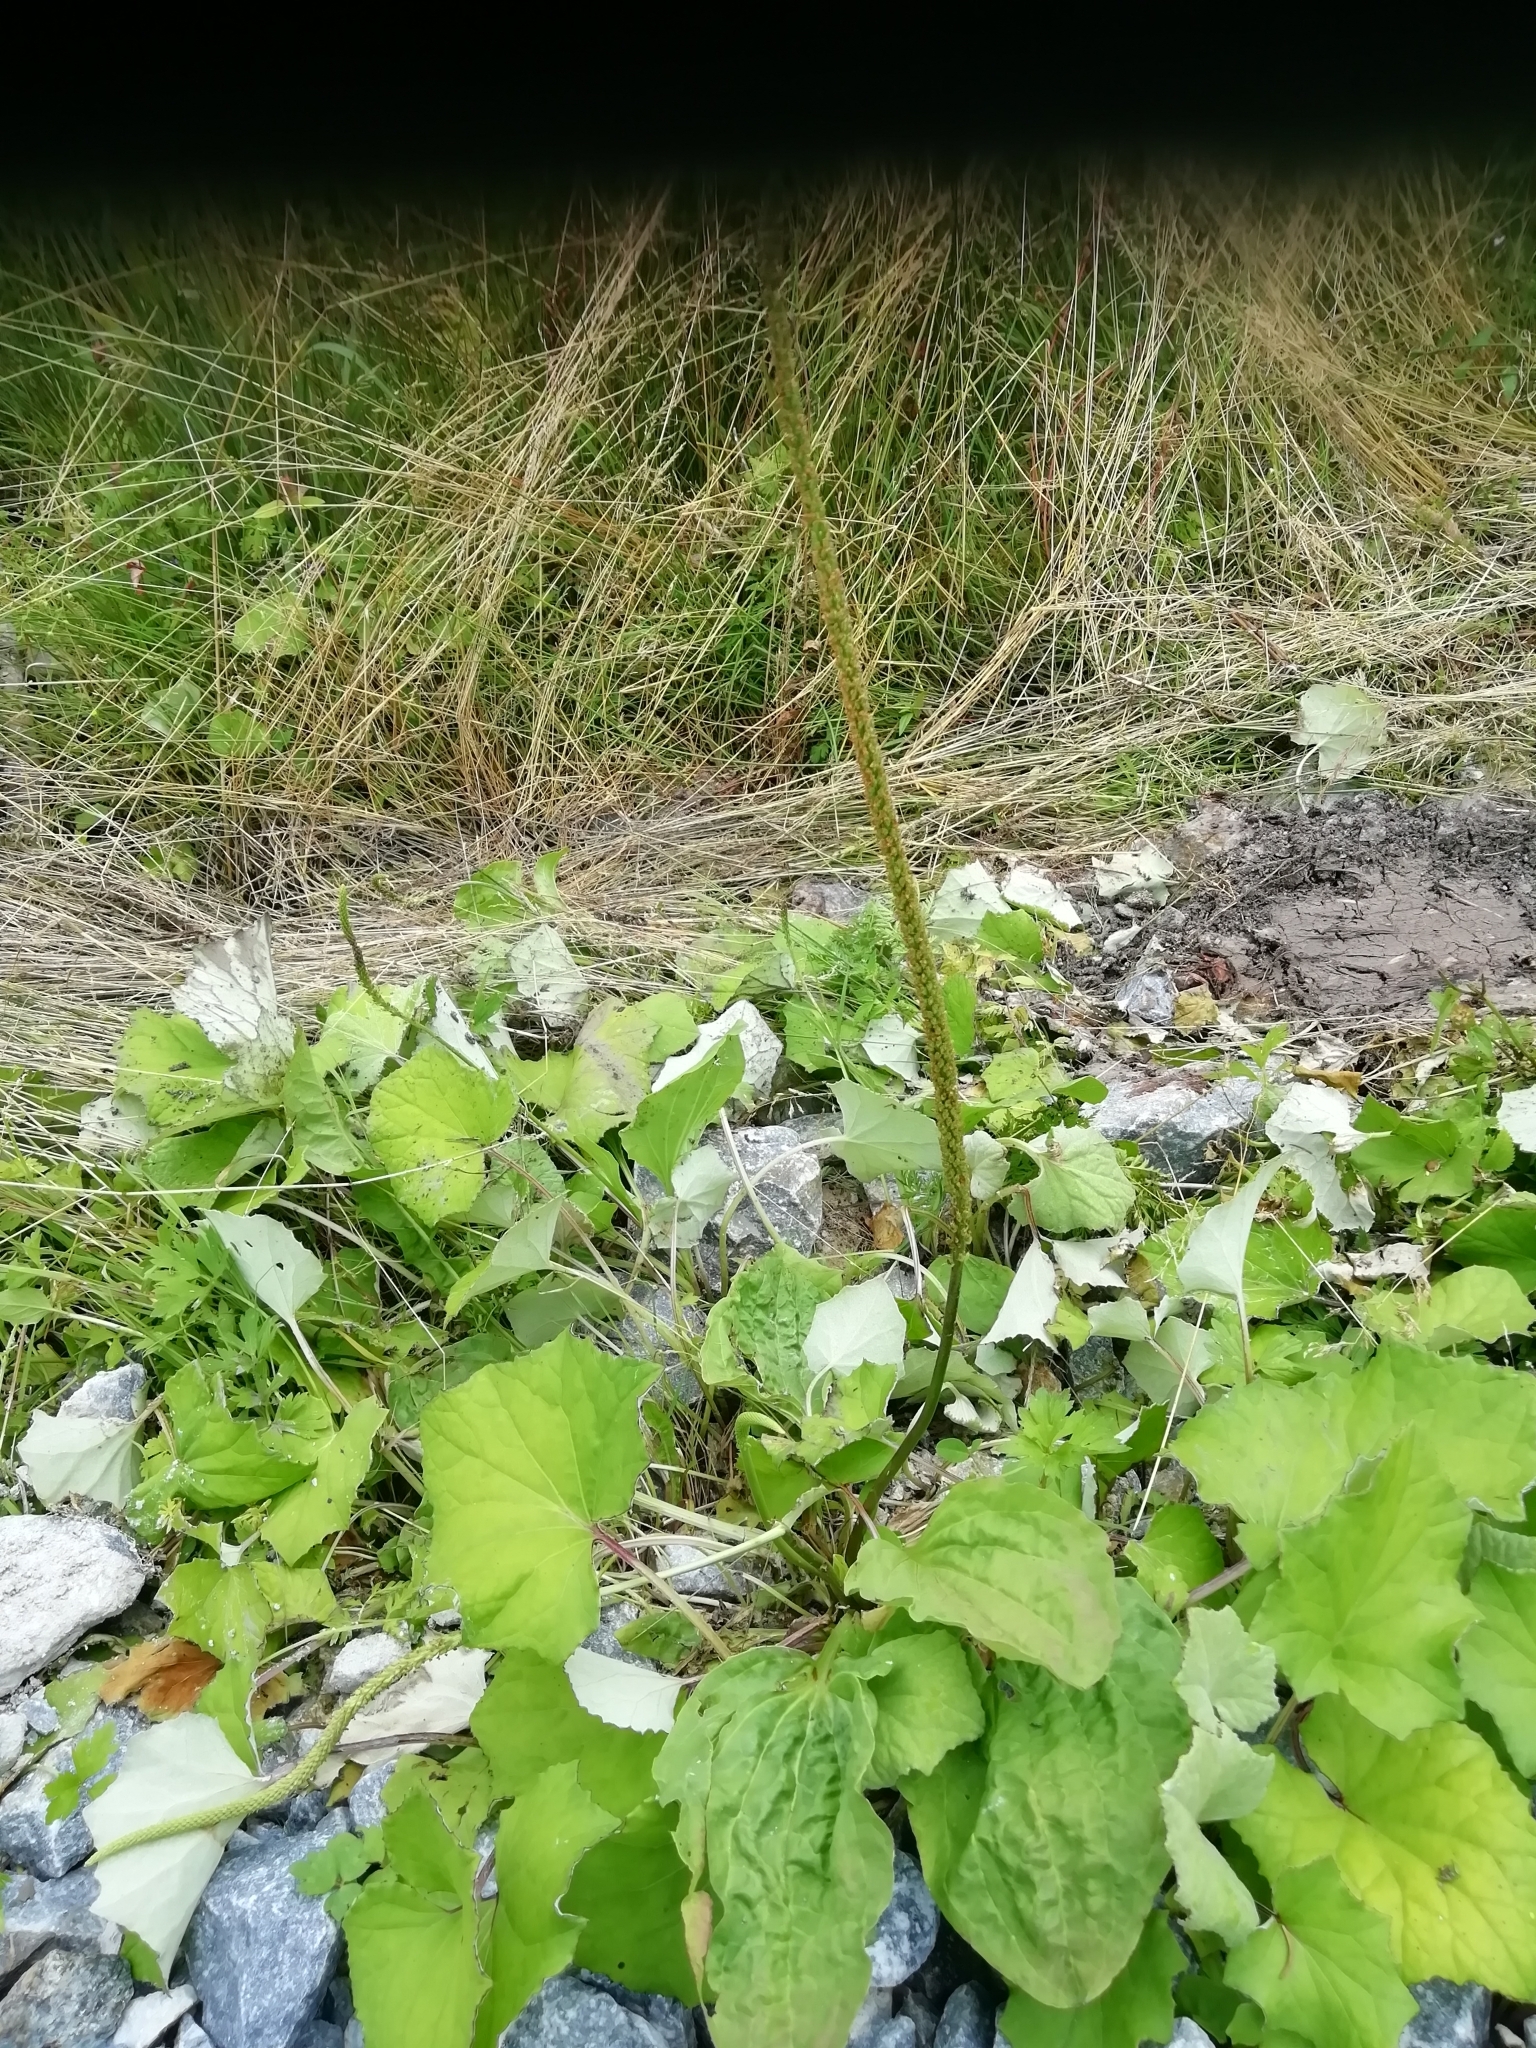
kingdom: Plantae
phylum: Tracheophyta
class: Magnoliopsida
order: Lamiales
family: Plantaginaceae
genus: Plantago
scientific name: Plantago major
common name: Common plantain
